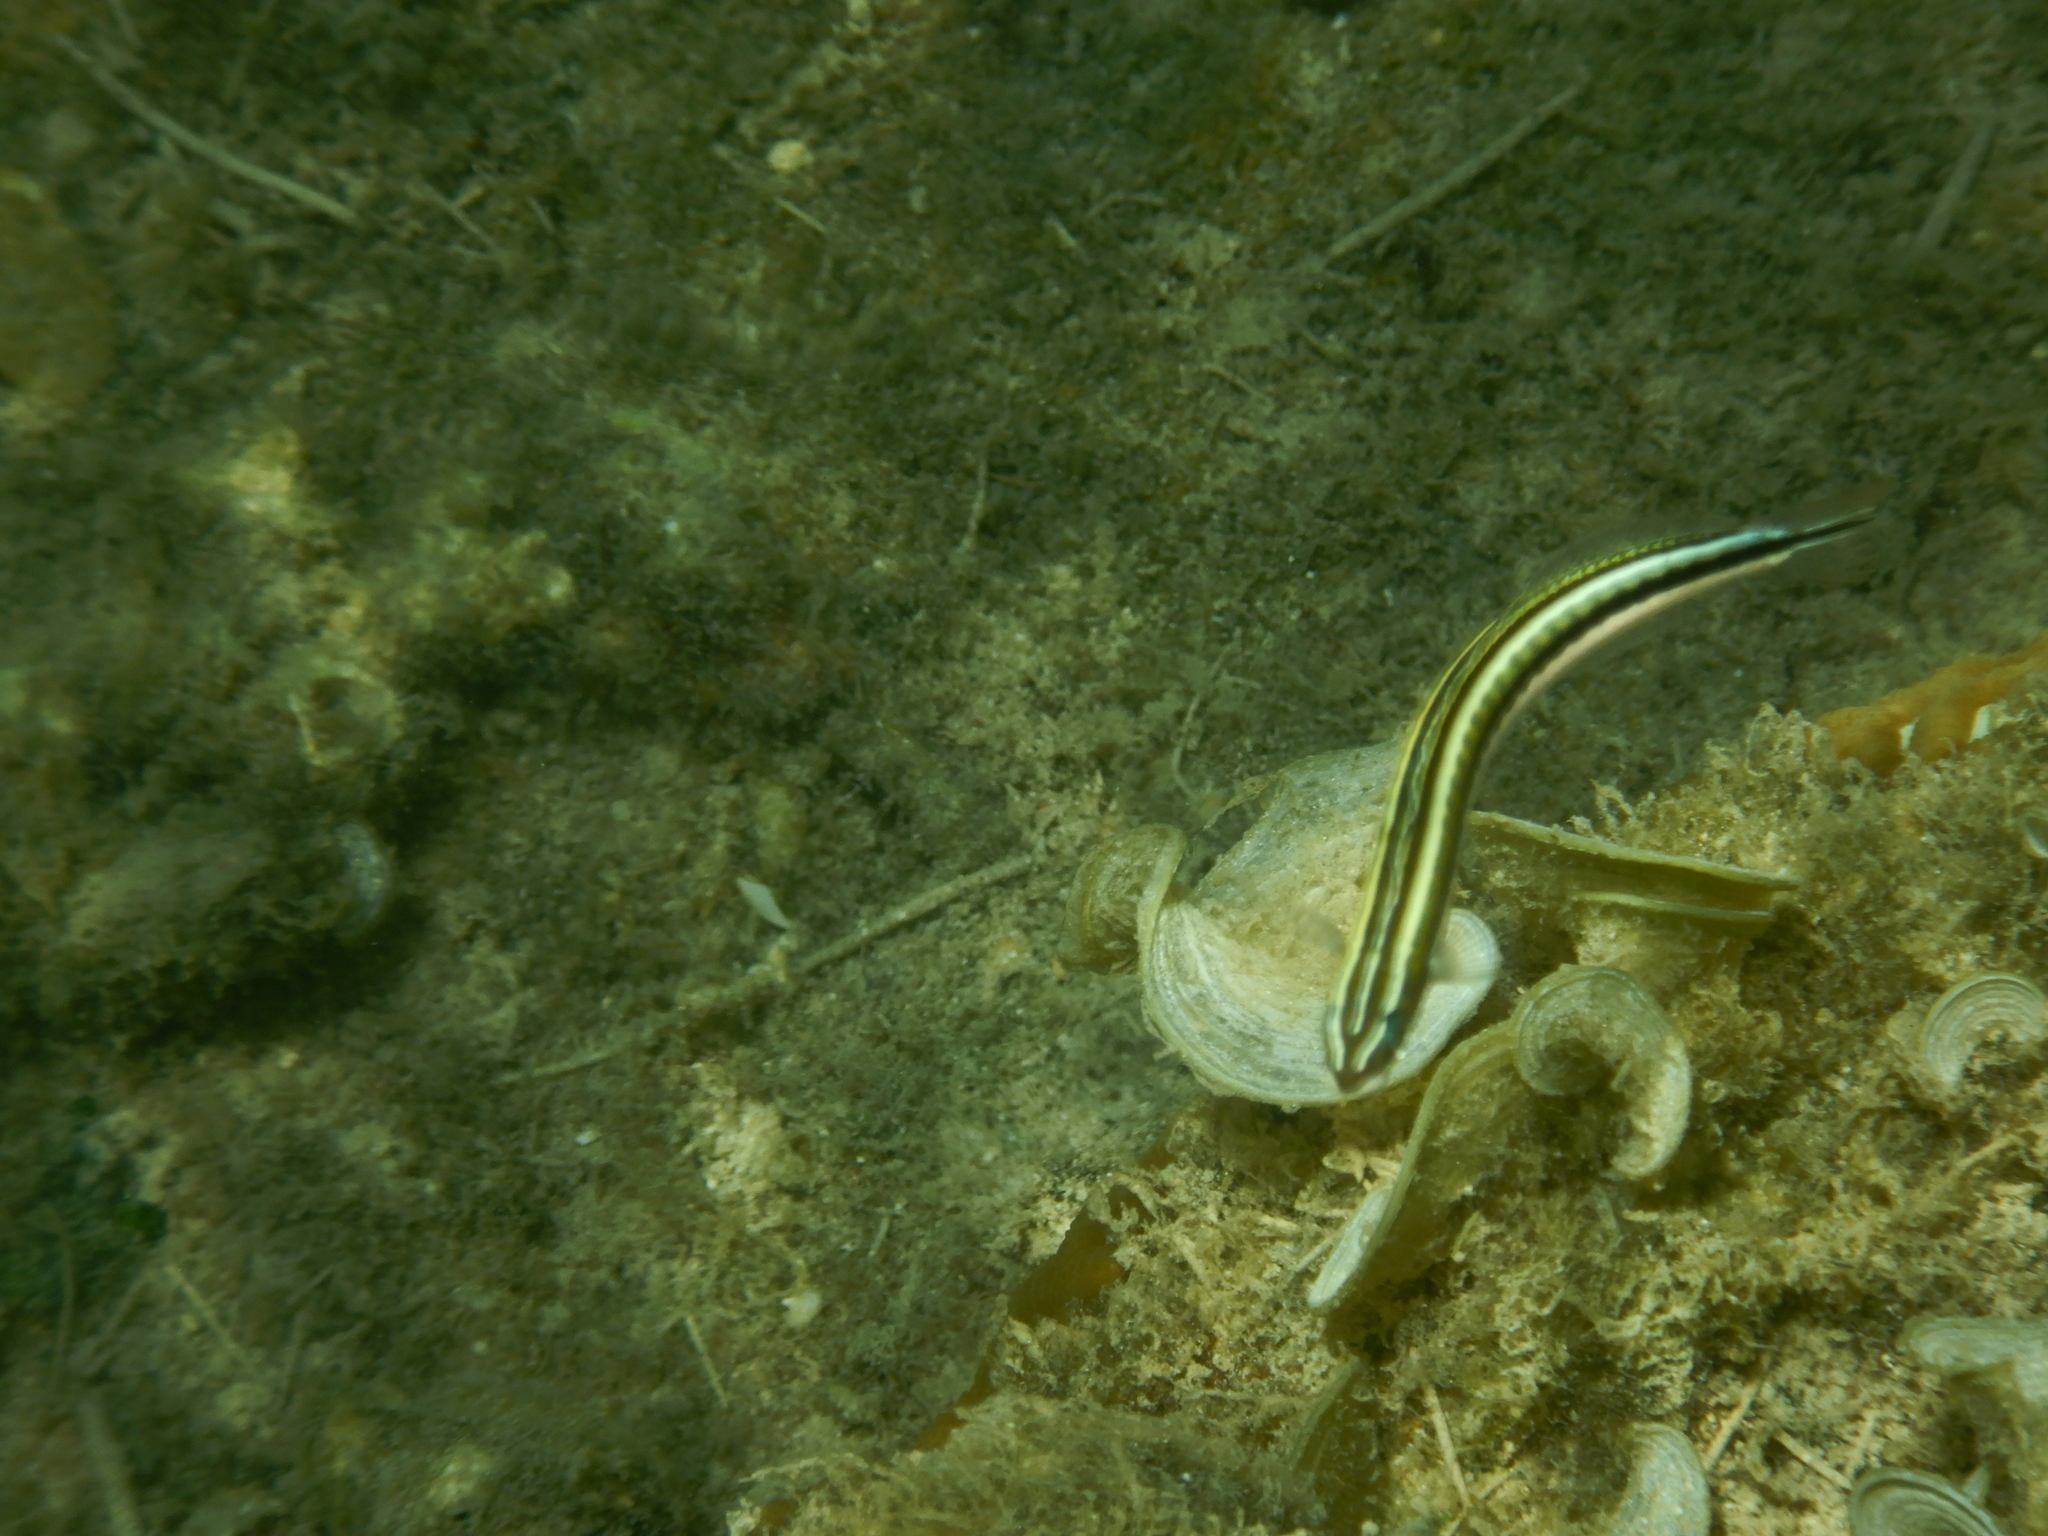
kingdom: Animalia
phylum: Chordata
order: Perciformes
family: Blenniidae
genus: Plagiotremus
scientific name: Plagiotremus tapeinosoma
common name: Hit and run blenny
